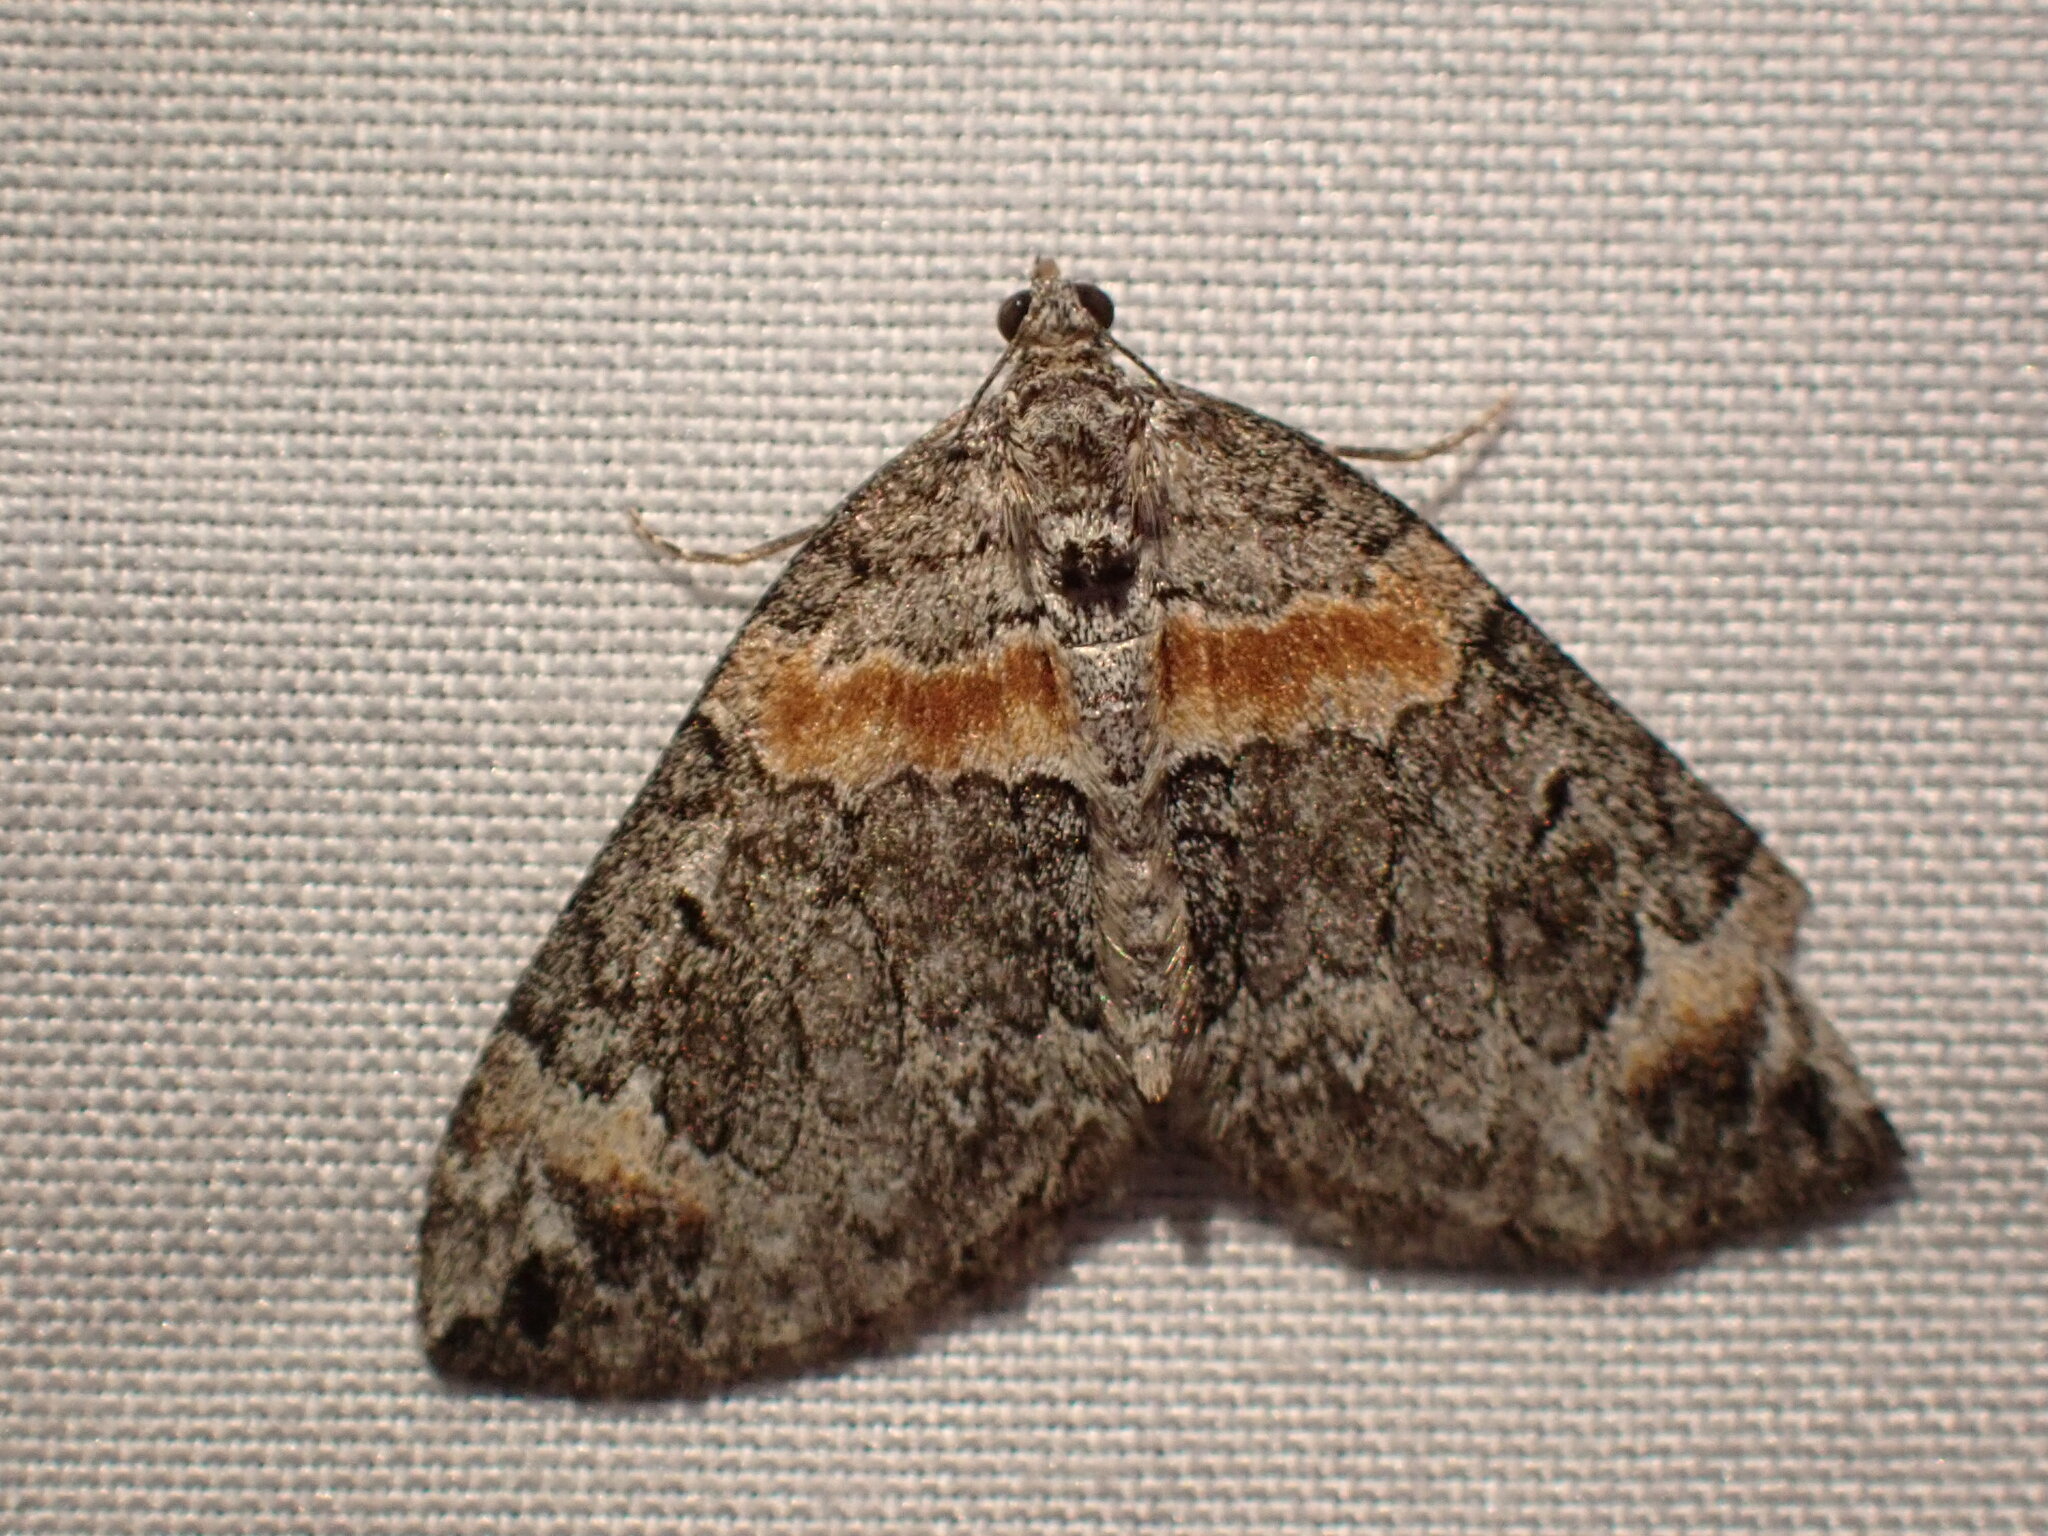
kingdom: Animalia
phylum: Arthropoda
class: Insecta
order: Lepidoptera
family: Geometridae
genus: Dysstroma
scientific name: Dysstroma hersiliata
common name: Orange-barred carpet
